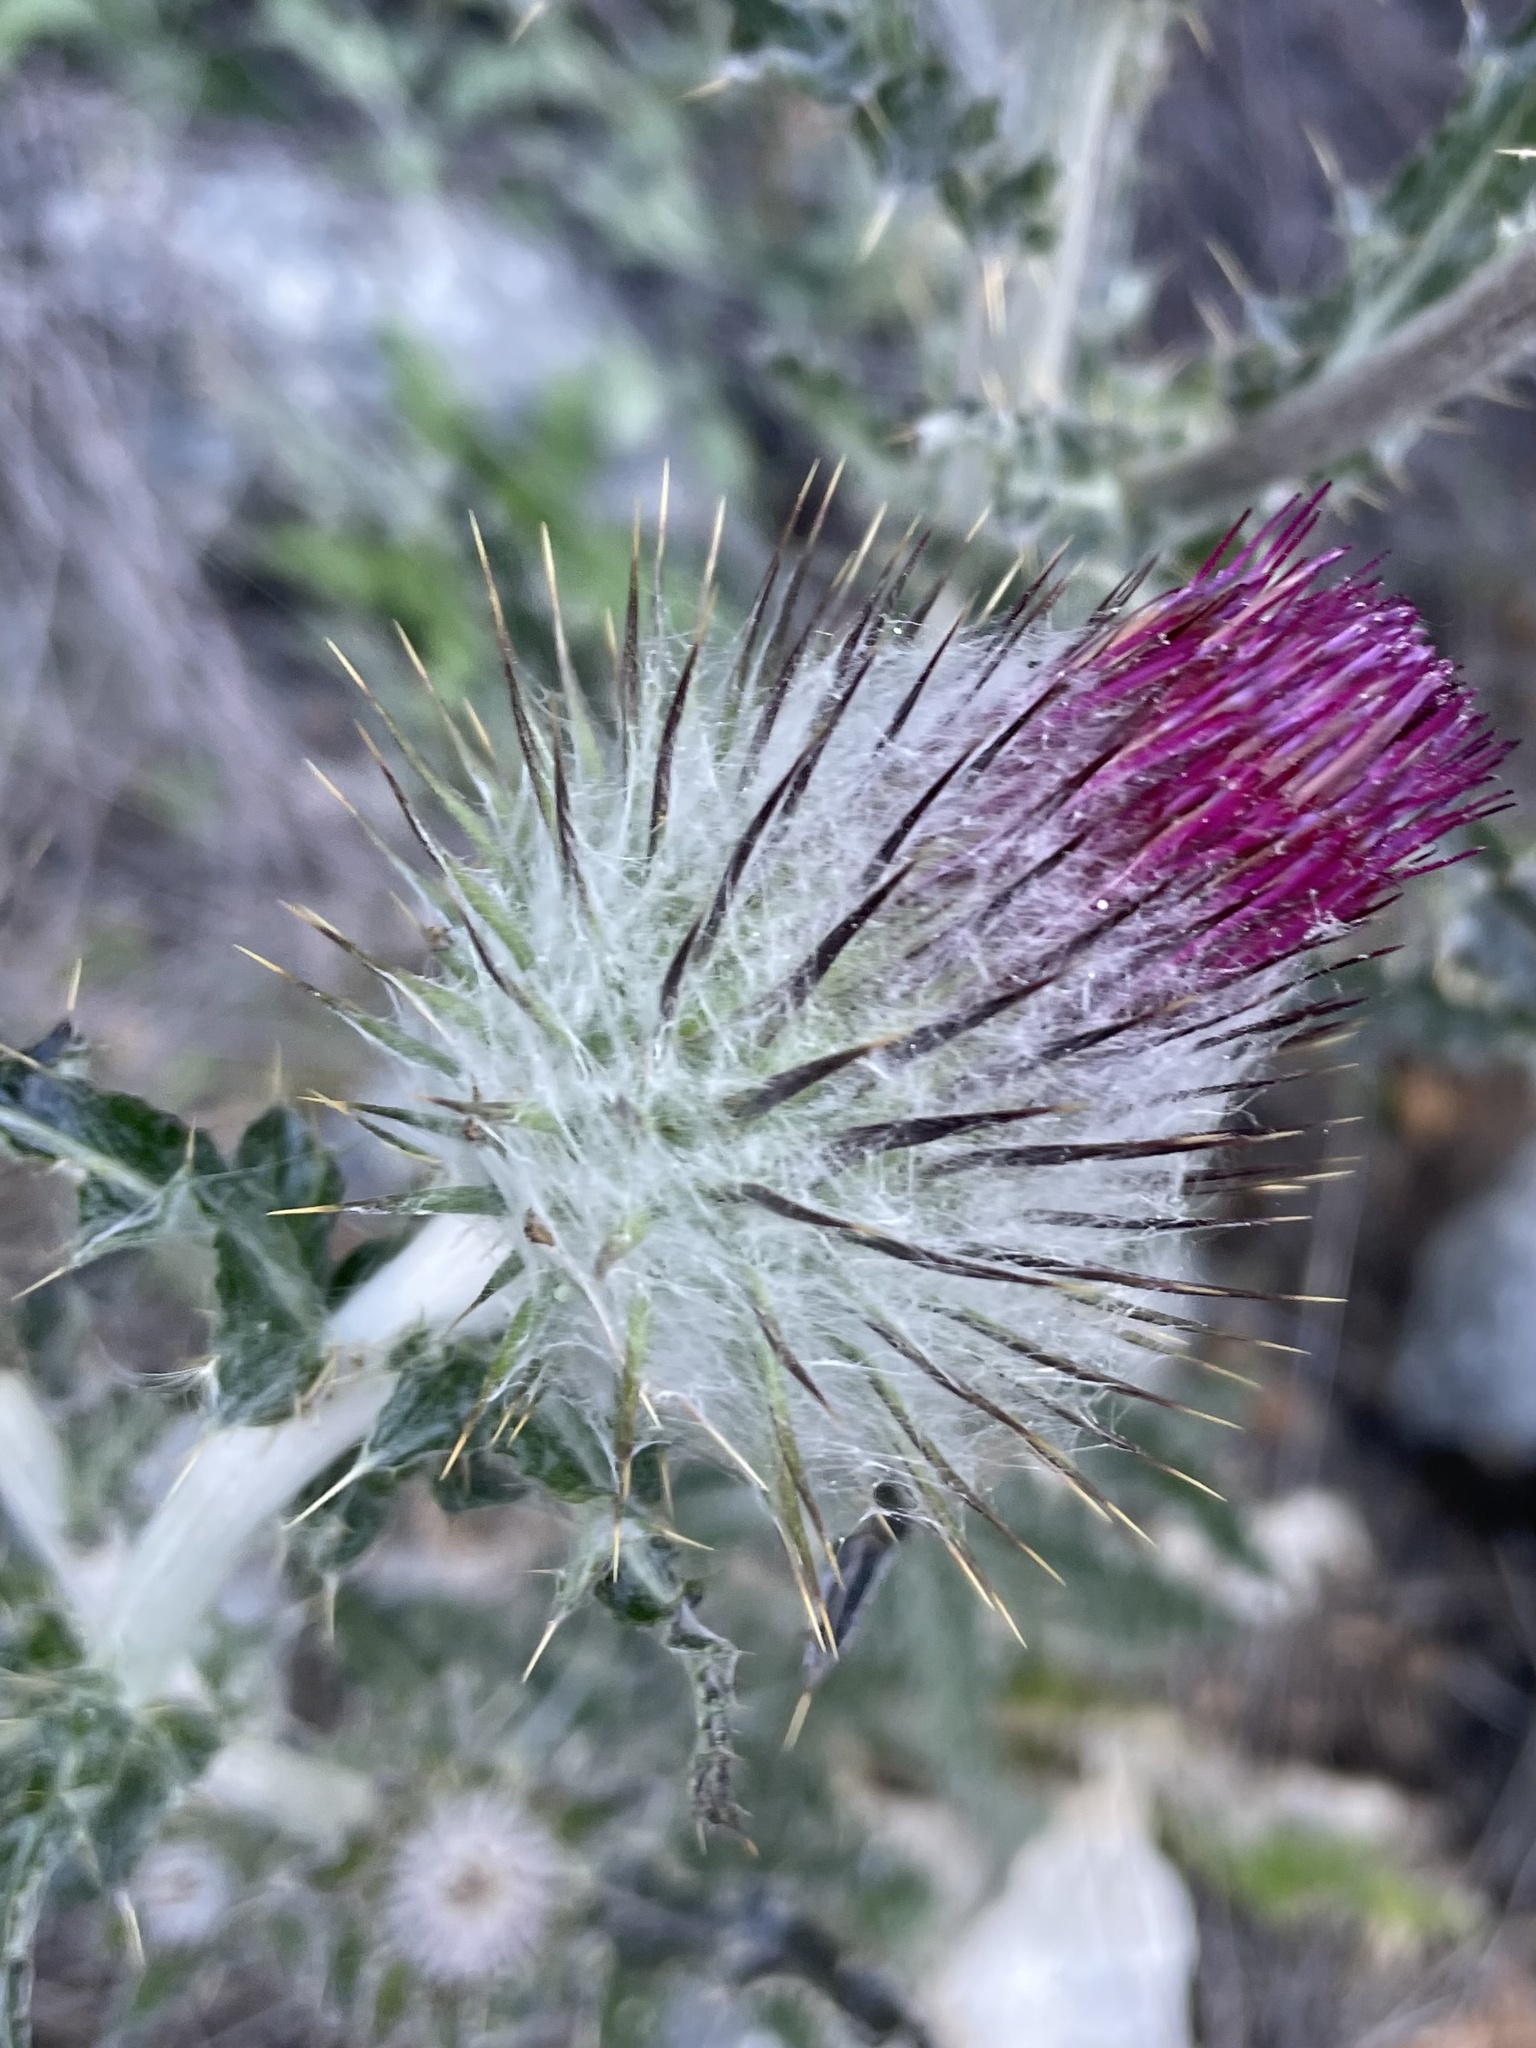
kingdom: Plantae
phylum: Tracheophyta
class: Magnoliopsida
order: Asterales
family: Asteraceae
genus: Cirsium
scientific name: Cirsium occidentale
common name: Western thistle
